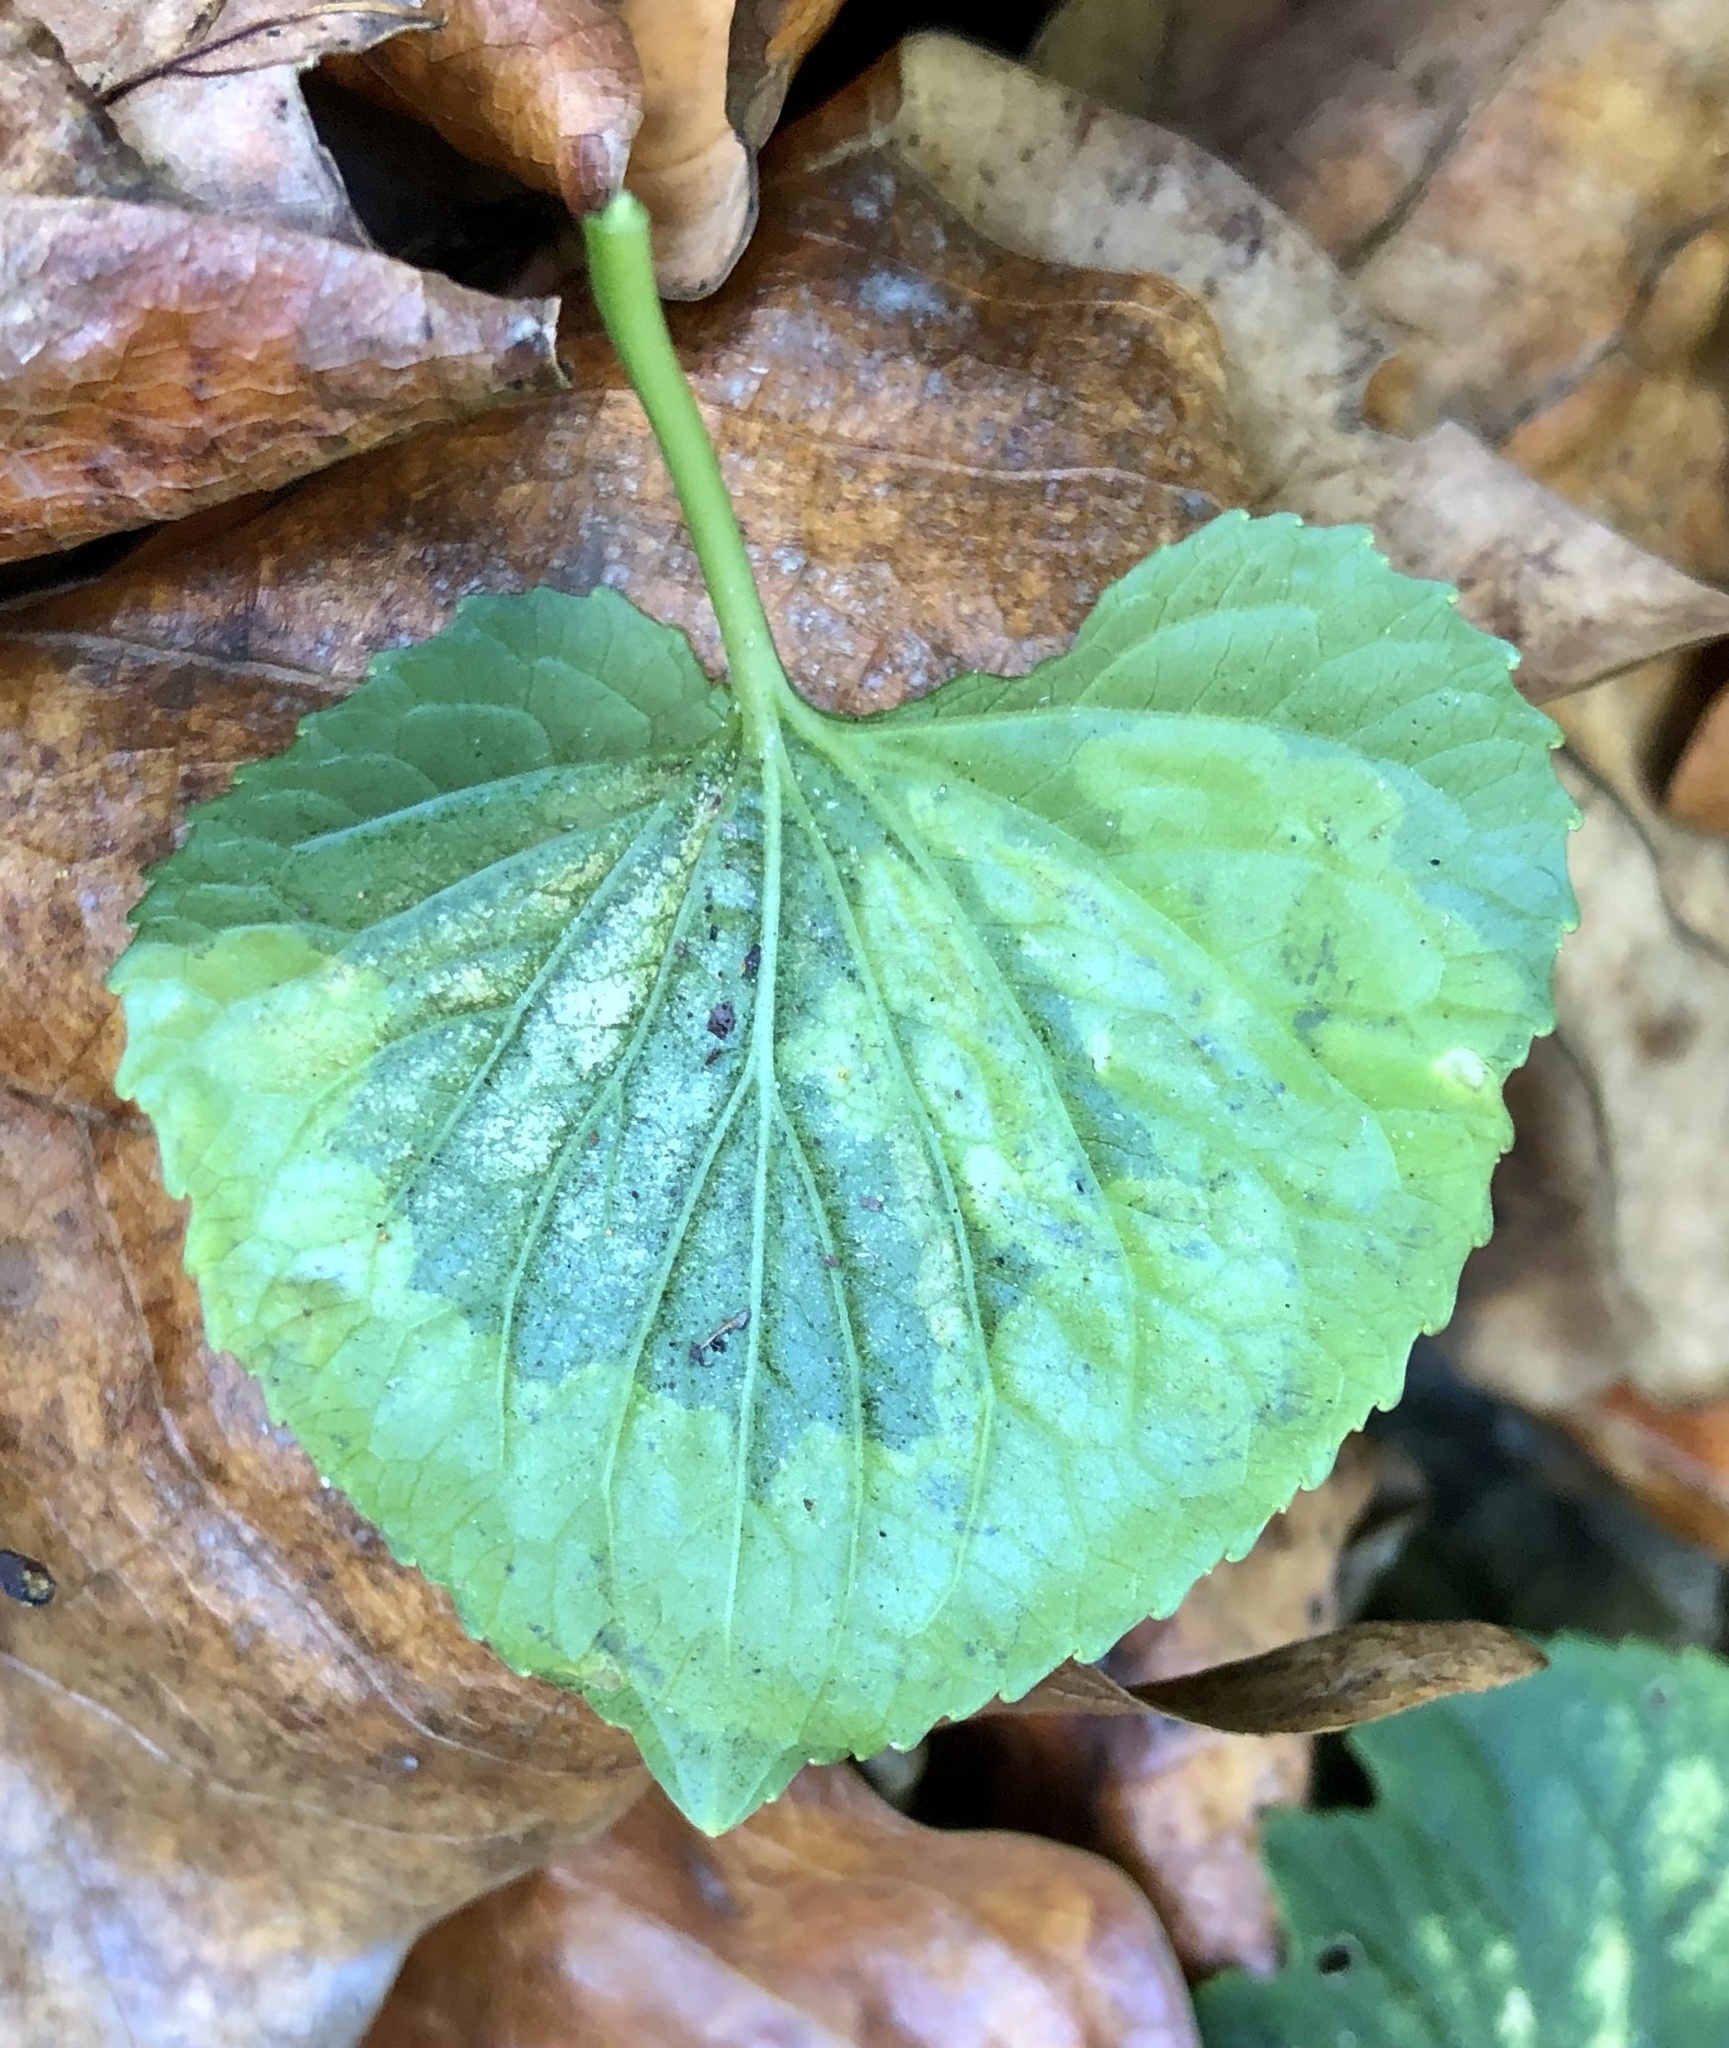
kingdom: Animalia
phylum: Arthropoda
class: Insecta
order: Diptera
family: Agromyzidae
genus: Liriomyza
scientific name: Liriomyza violivora
